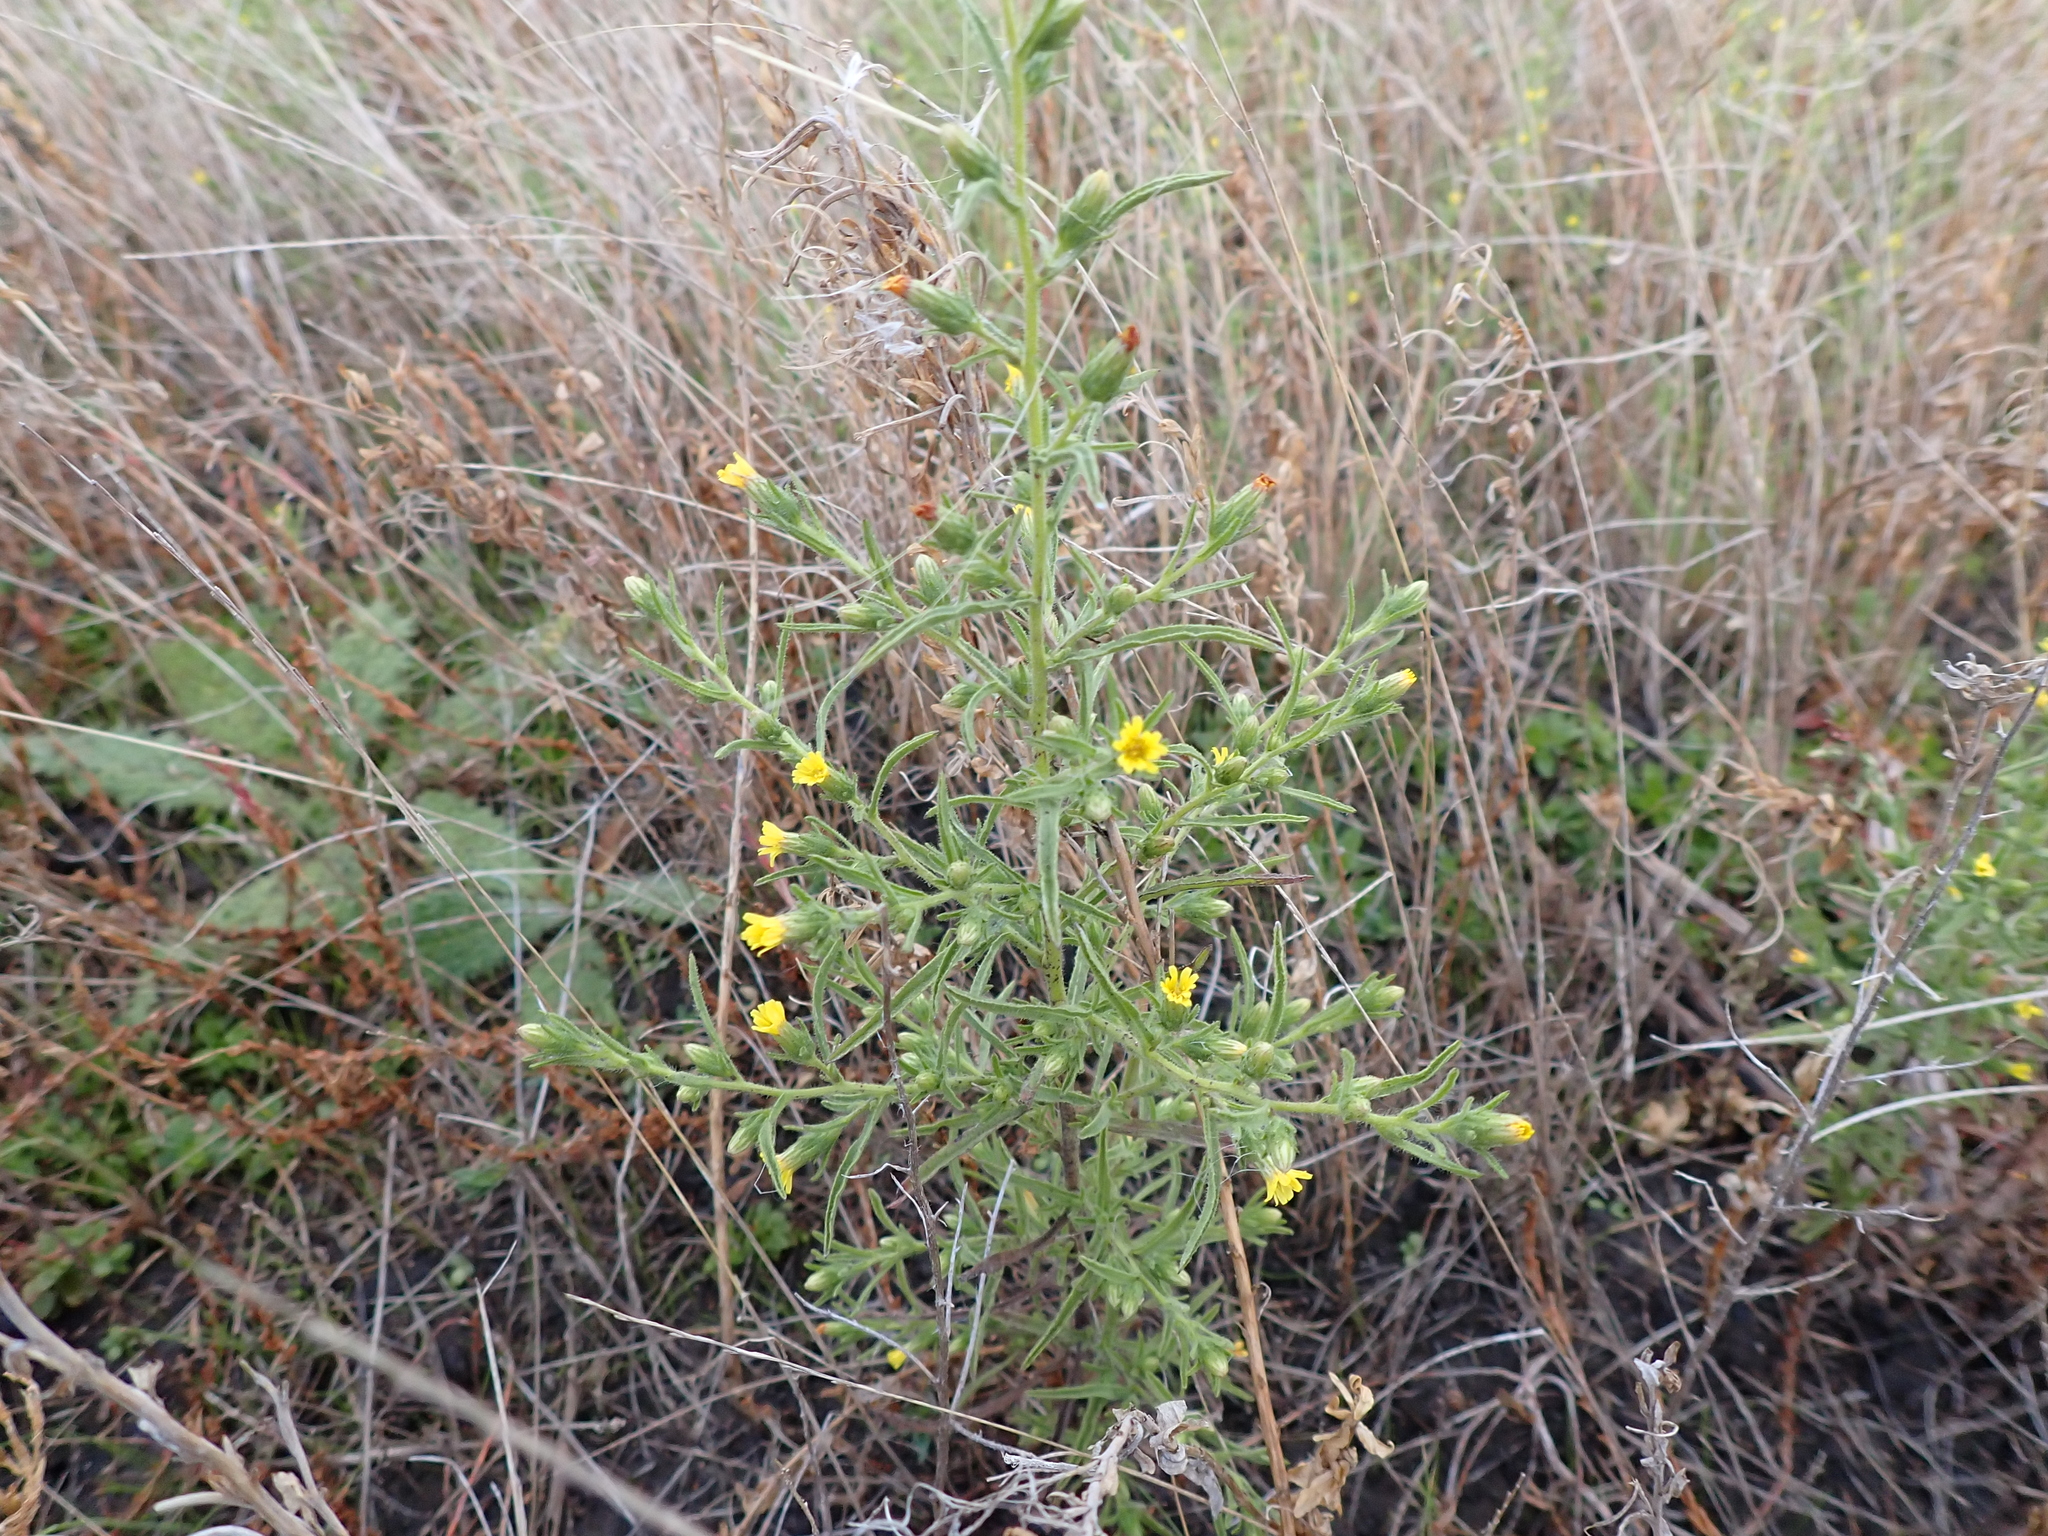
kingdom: Plantae
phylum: Tracheophyta
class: Magnoliopsida
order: Asterales
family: Asteraceae
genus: Dittrichia
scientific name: Dittrichia graveolens
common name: Stinking fleabane
